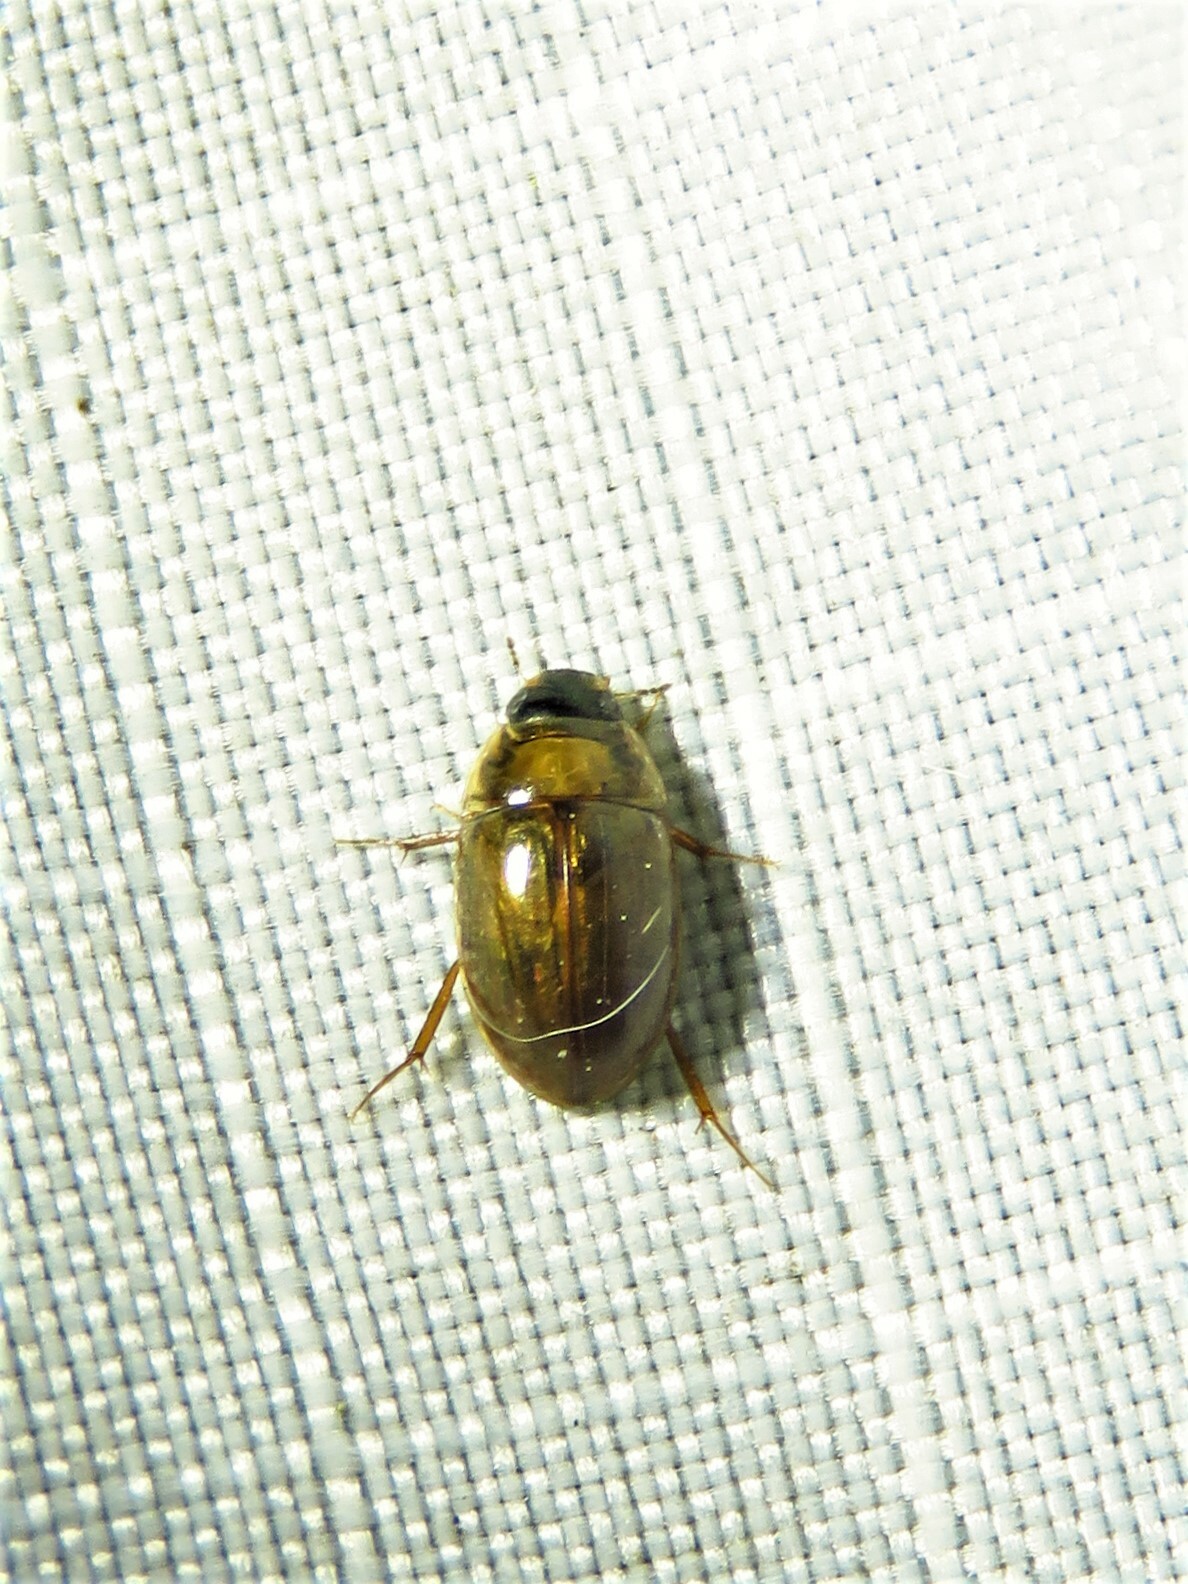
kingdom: Animalia
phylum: Arthropoda
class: Insecta
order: Coleoptera
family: Hydrophilidae
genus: Enochrus
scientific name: Enochrus
